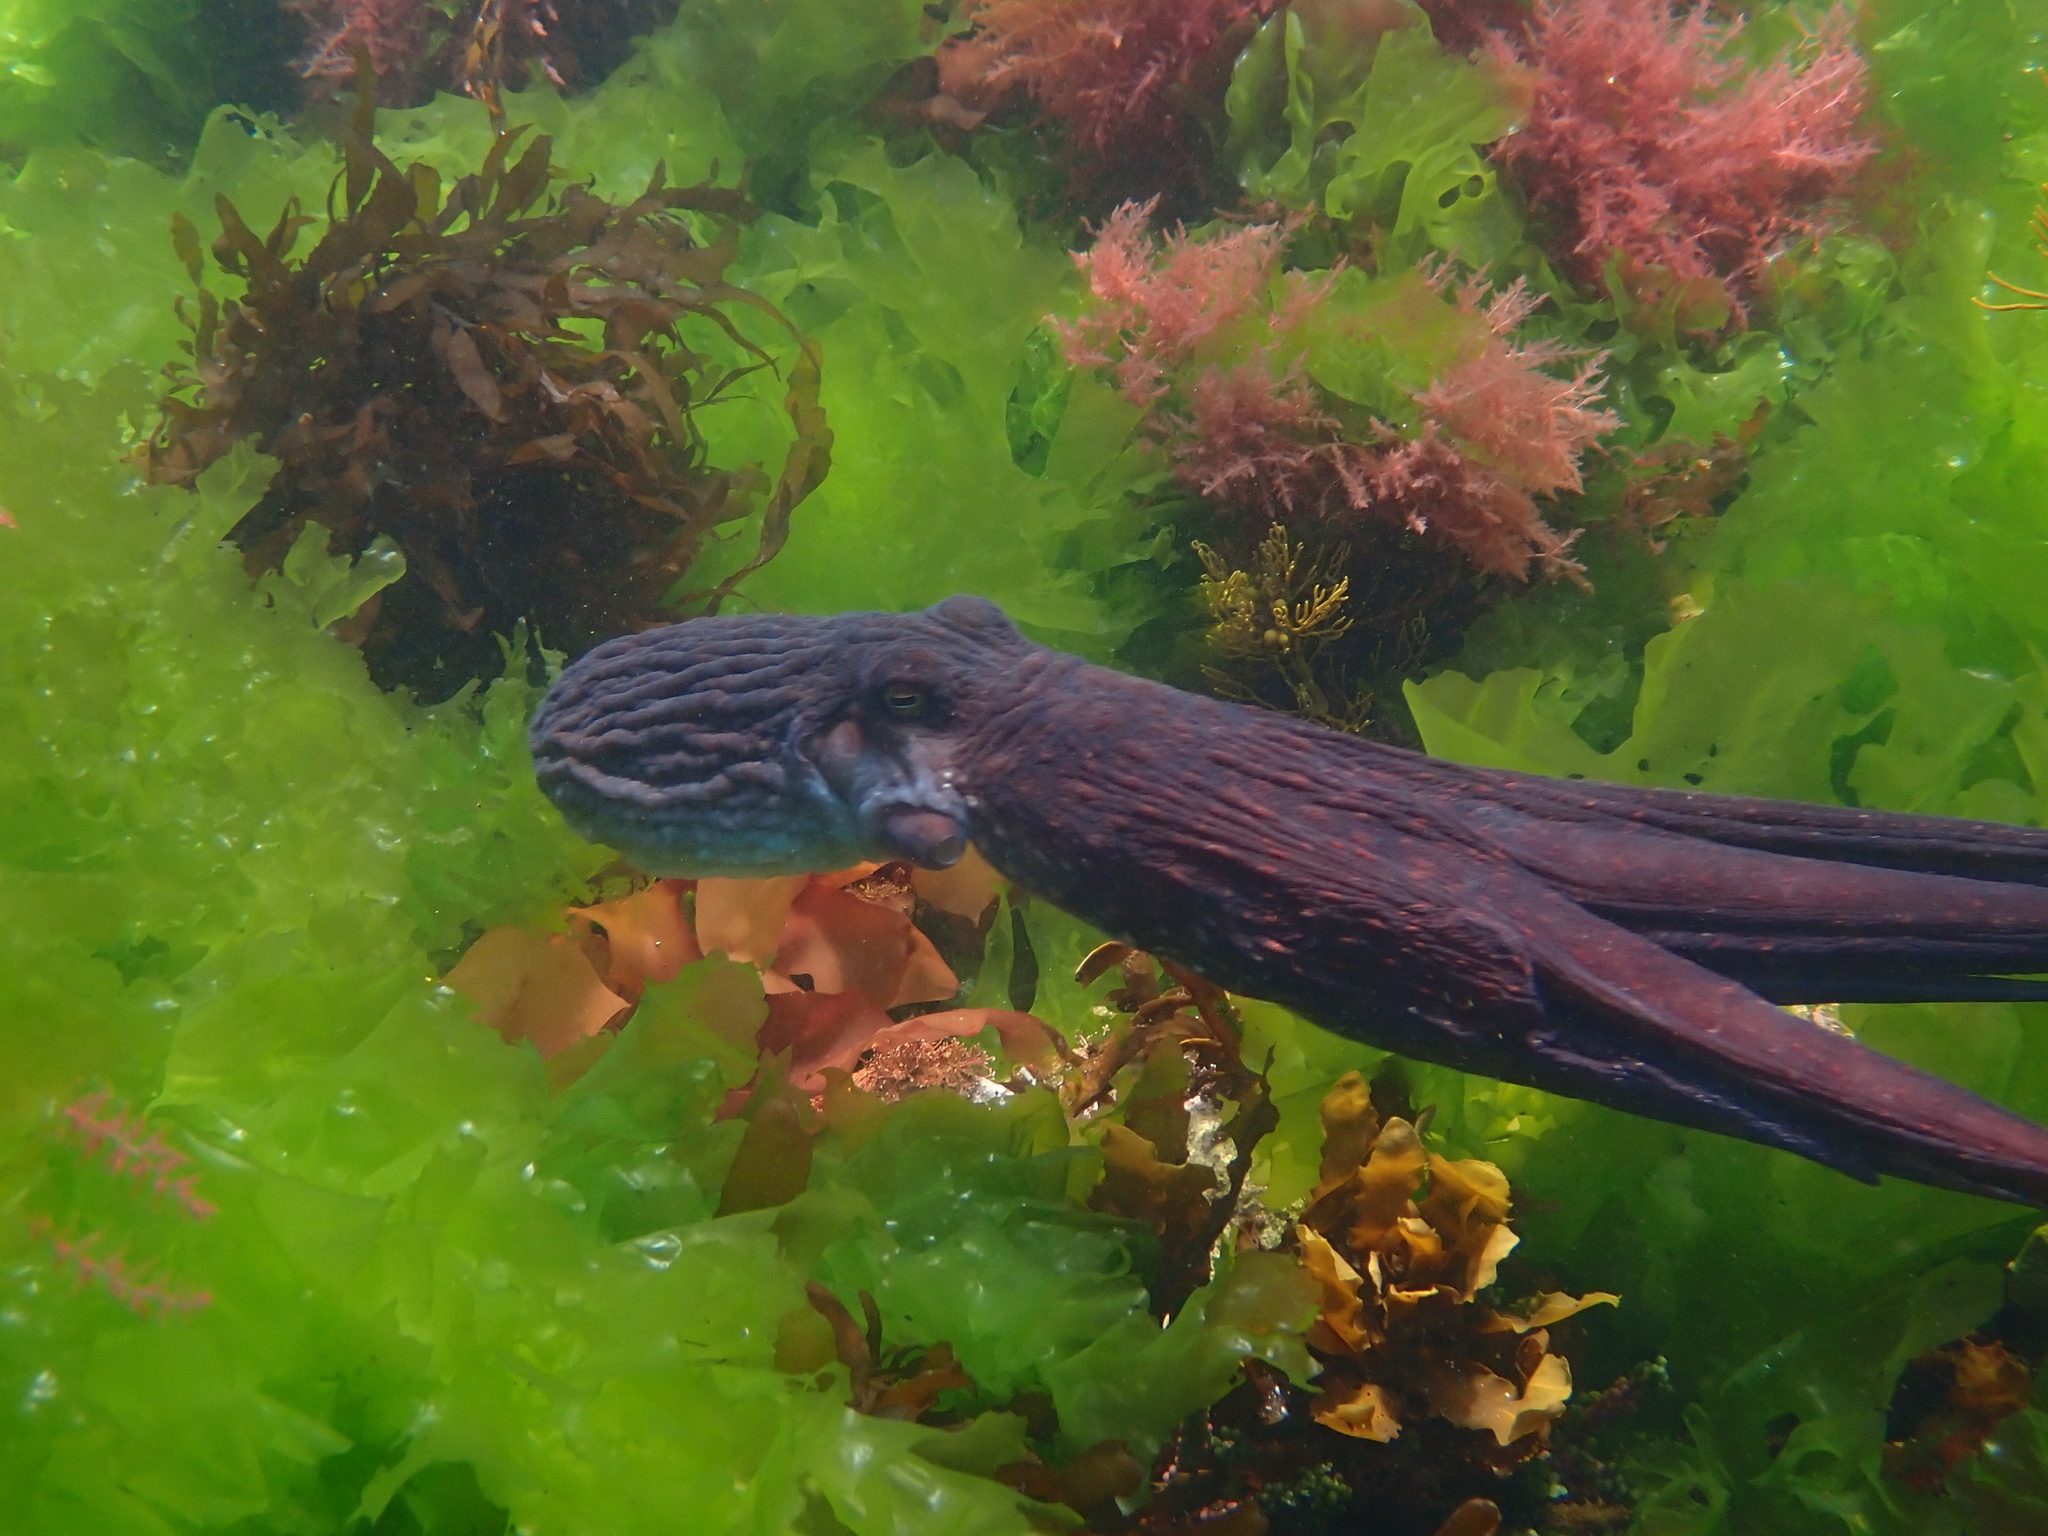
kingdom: Animalia
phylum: Mollusca
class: Cephalopoda
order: Octopoda
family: Octopodidae
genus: Macroctopus
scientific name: Macroctopus maorum
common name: Maori octopus
